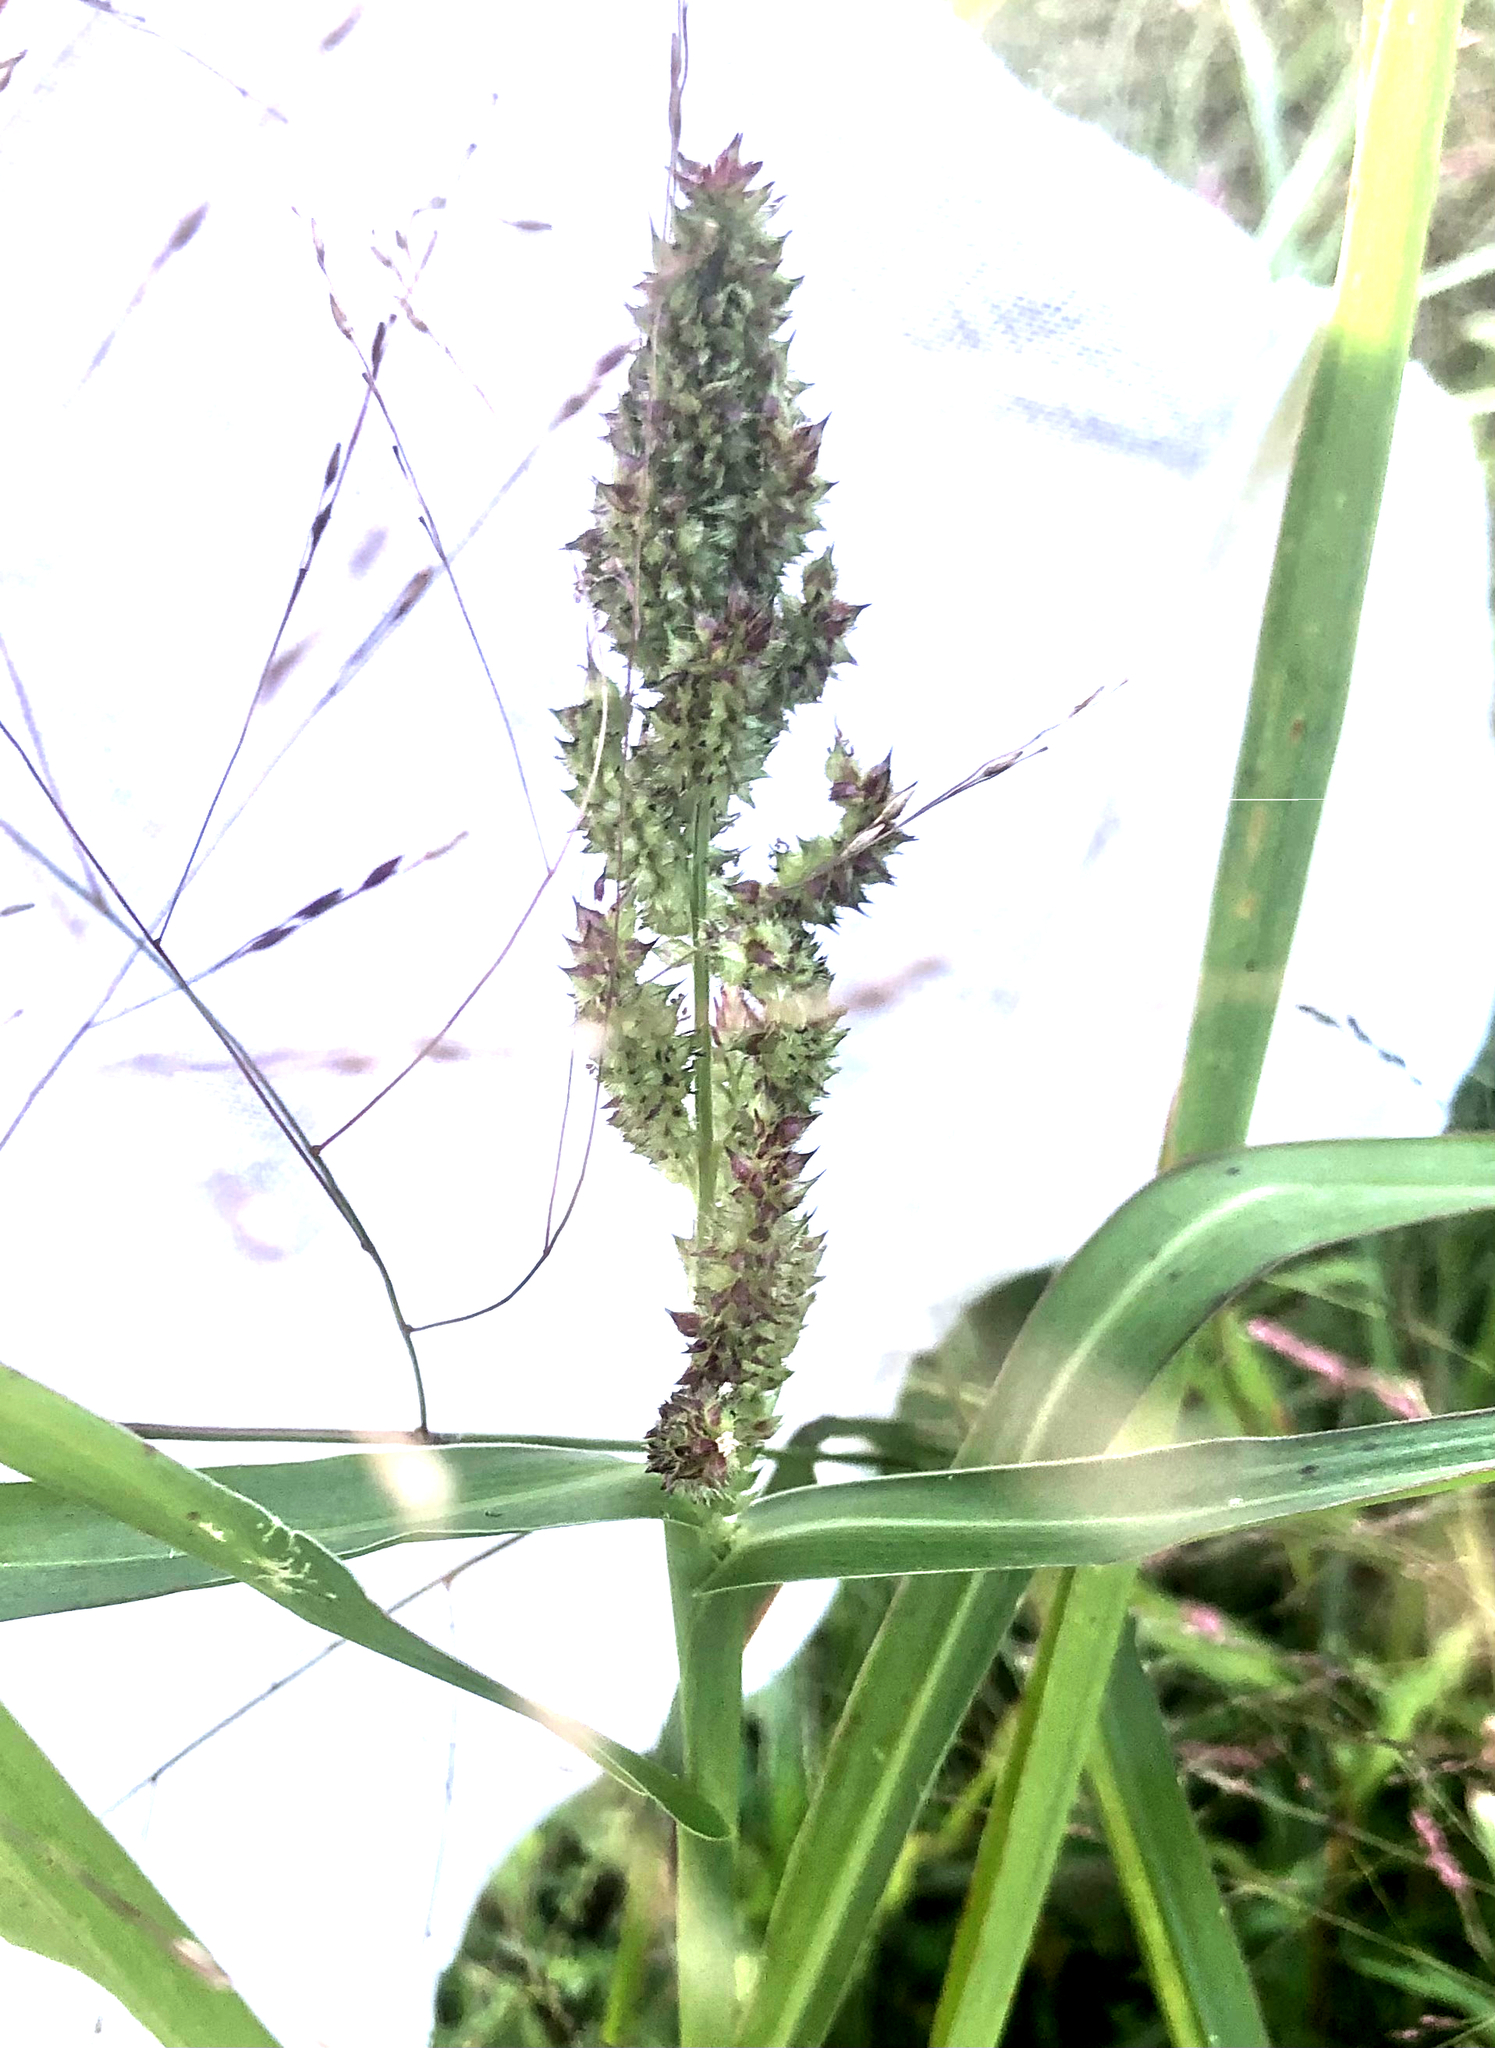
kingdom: Plantae
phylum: Tracheophyta
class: Liliopsida
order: Poales
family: Poaceae
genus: Echinochloa
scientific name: Echinochloa crus-galli
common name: Cockspur
